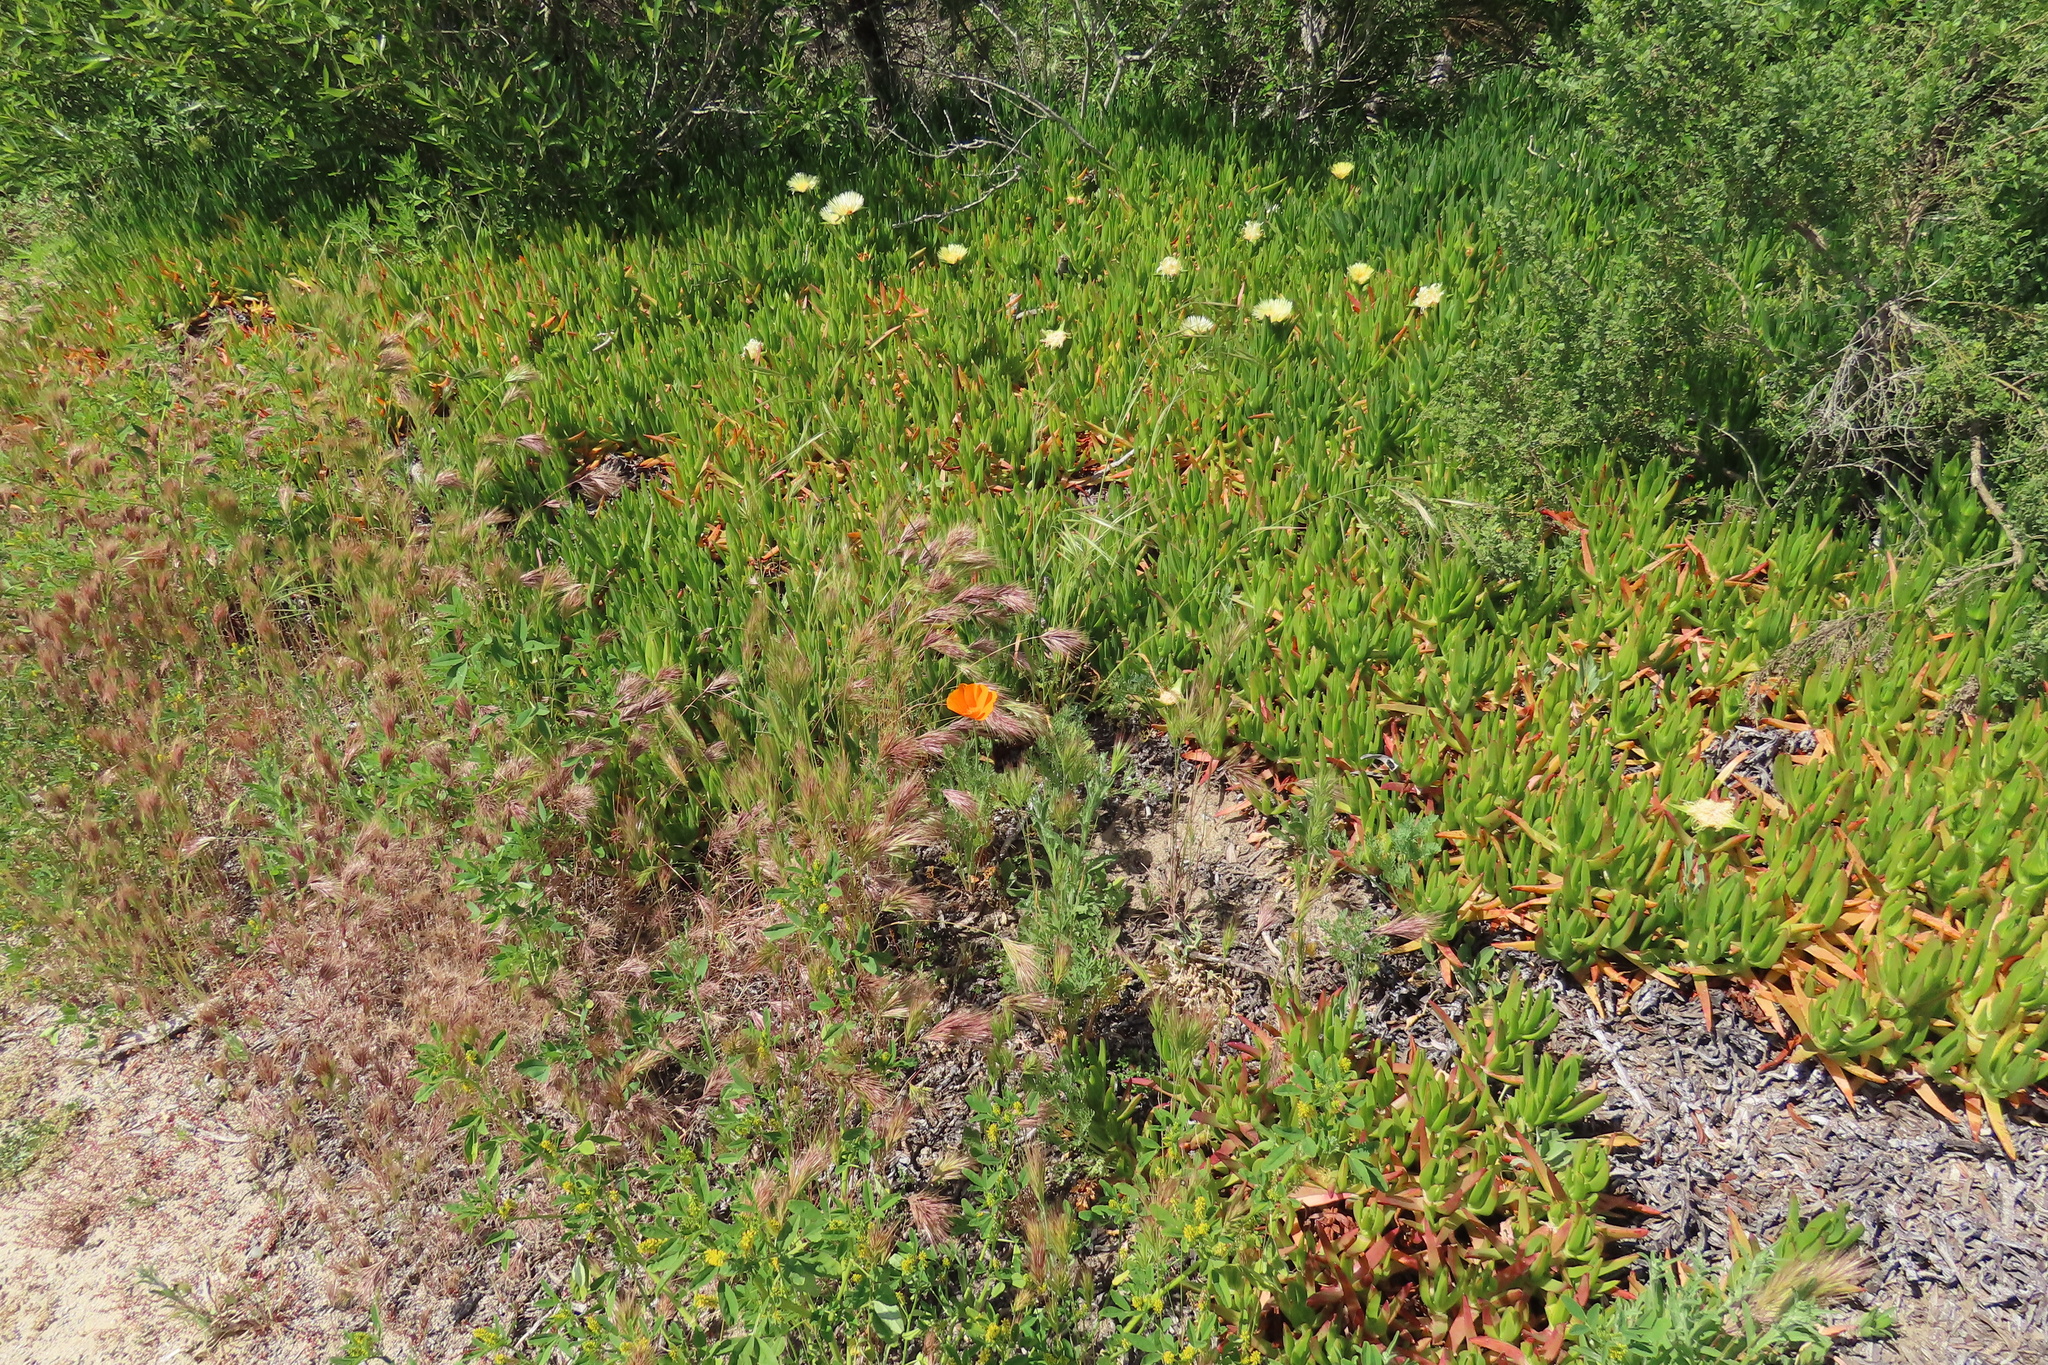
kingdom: Plantae
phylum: Tracheophyta
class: Magnoliopsida
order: Ranunculales
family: Papaveraceae
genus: Eschscholzia
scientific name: Eschscholzia californica
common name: California poppy
